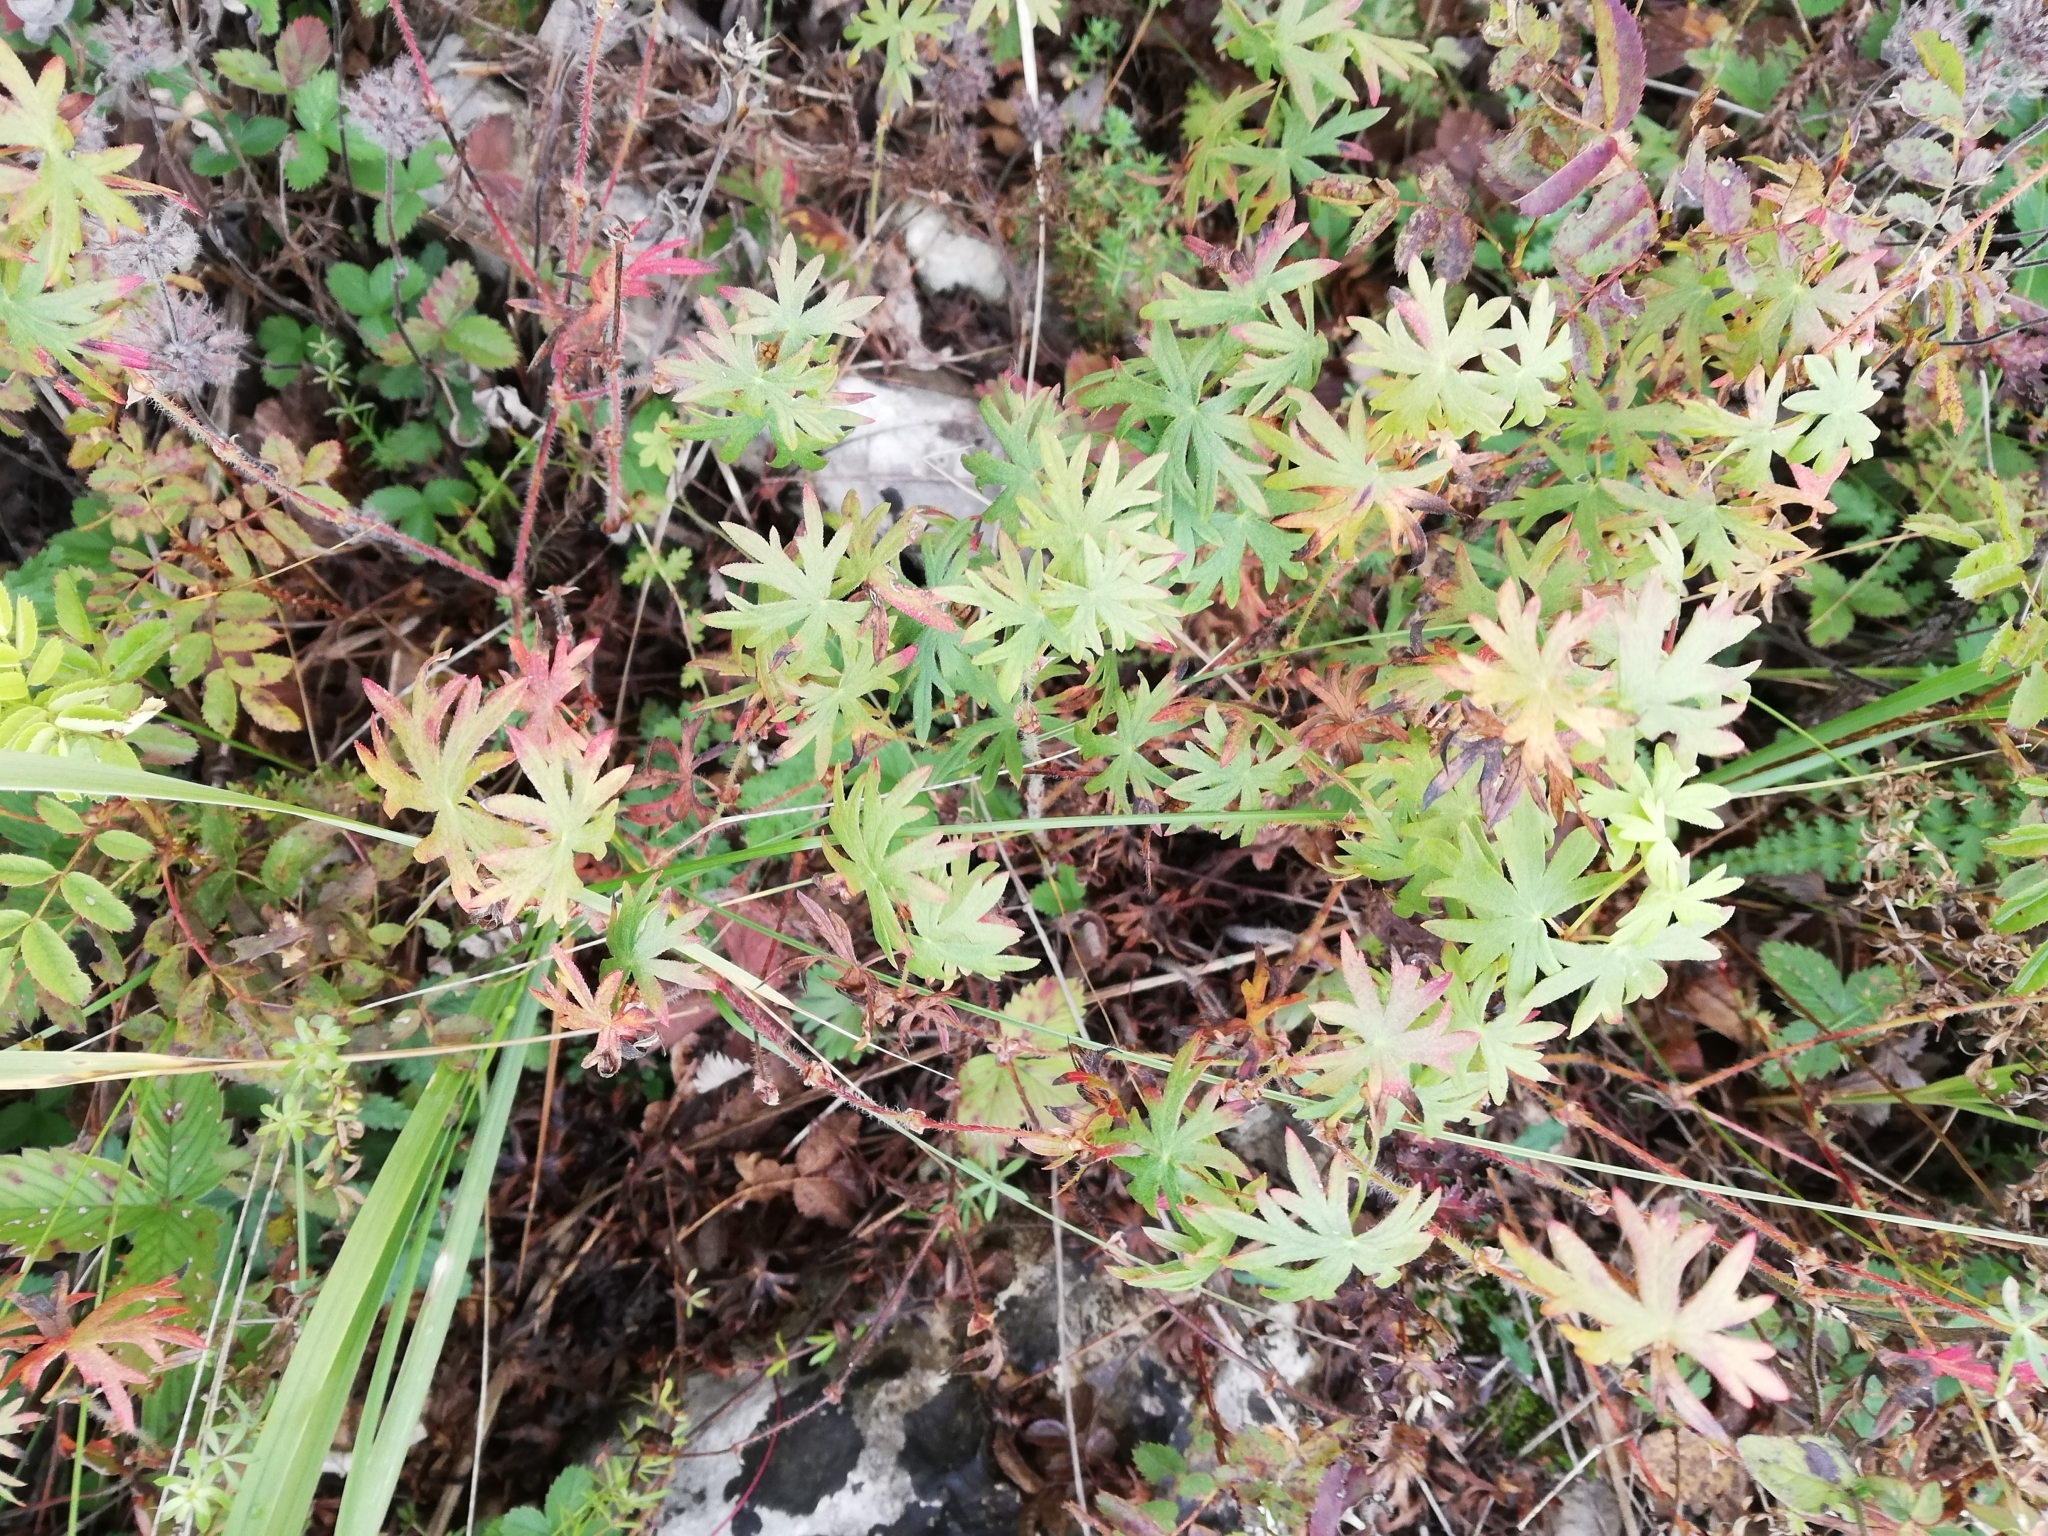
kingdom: Plantae
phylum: Tracheophyta
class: Magnoliopsida
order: Geraniales
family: Geraniaceae
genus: Geranium
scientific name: Geranium sanguineum
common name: Bloody crane's-bill
